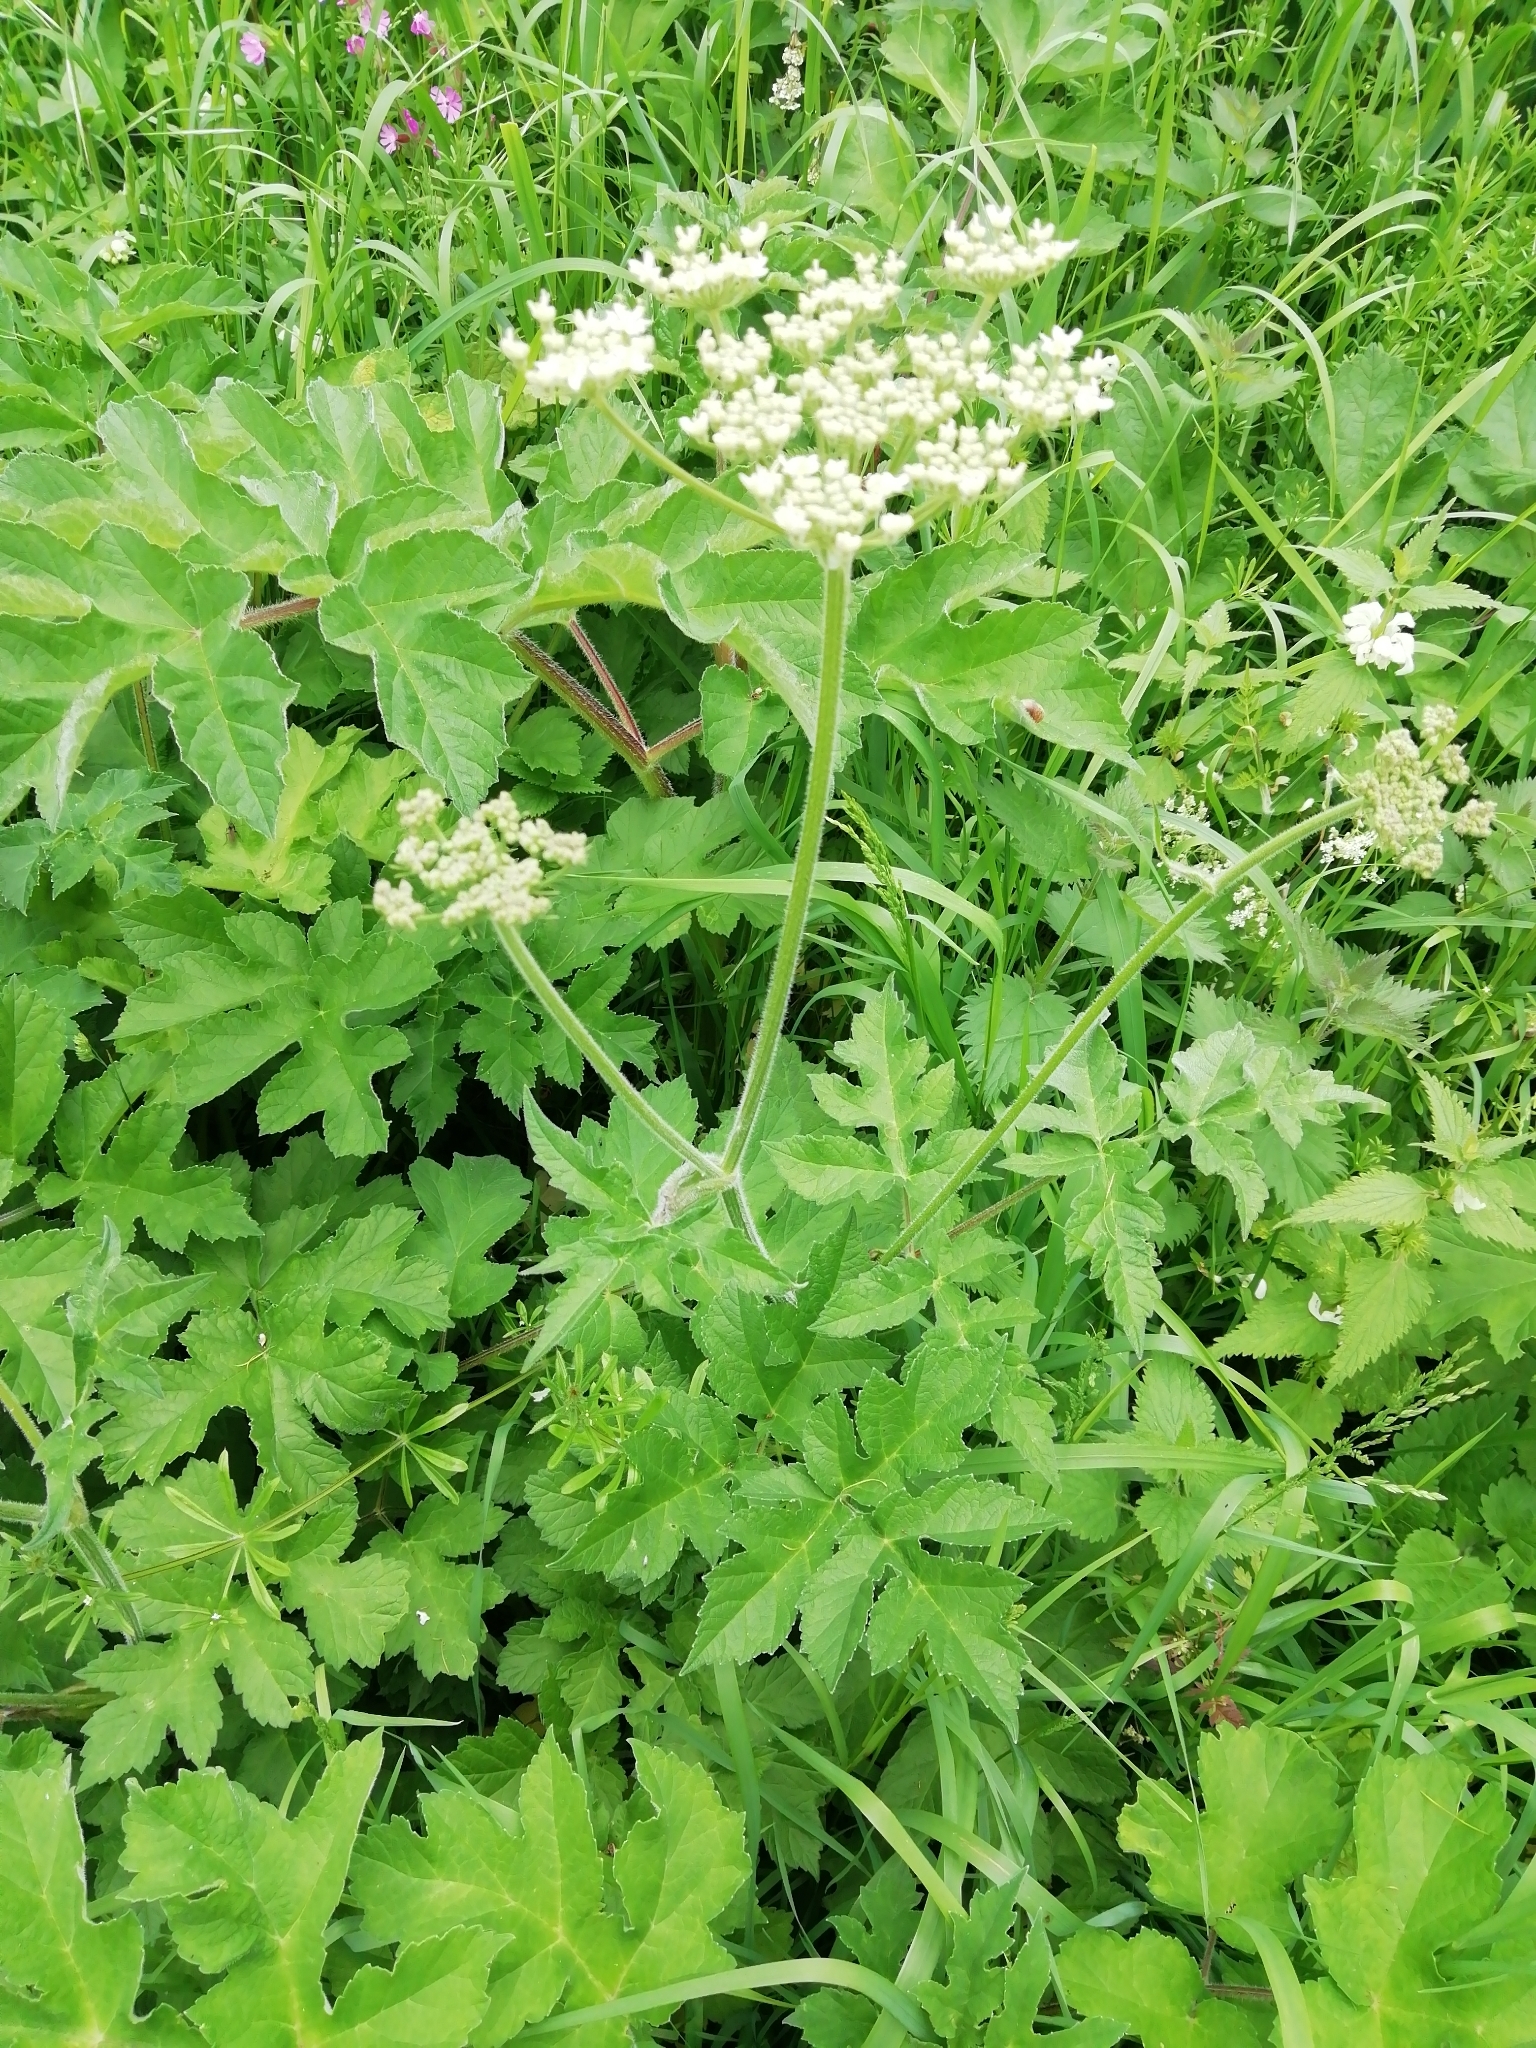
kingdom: Plantae
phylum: Tracheophyta
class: Magnoliopsida
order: Apiales
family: Apiaceae
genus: Heracleum
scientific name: Heracleum sphondylium
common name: Hogweed
